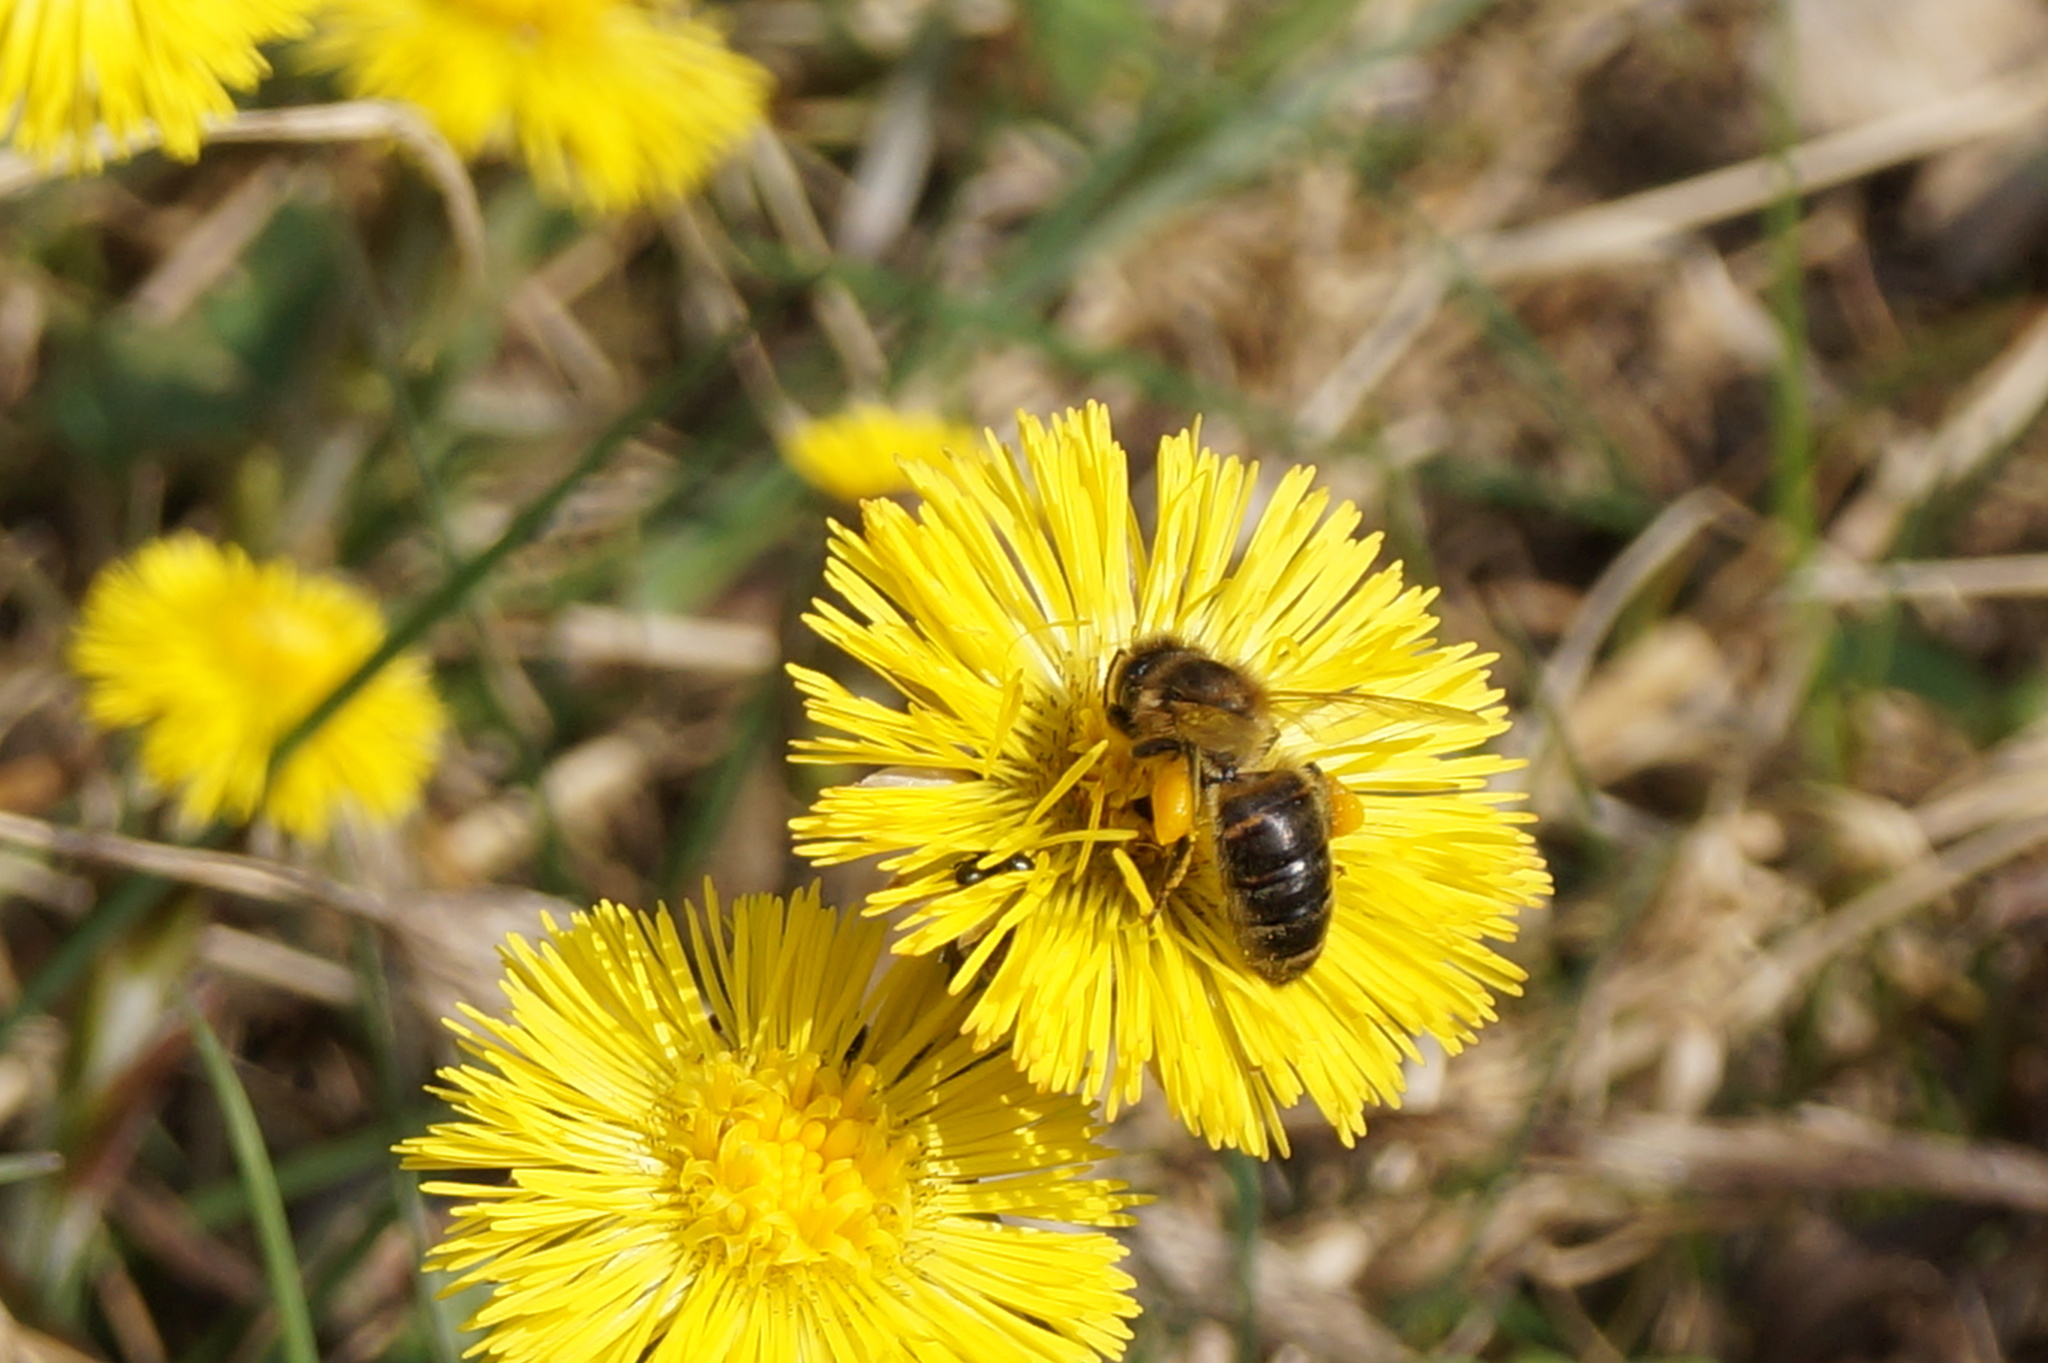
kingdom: Animalia
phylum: Arthropoda
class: Insecta
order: Hymenoptera
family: Apidae
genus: Apis
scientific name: Apis mellifera
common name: Honey bee
